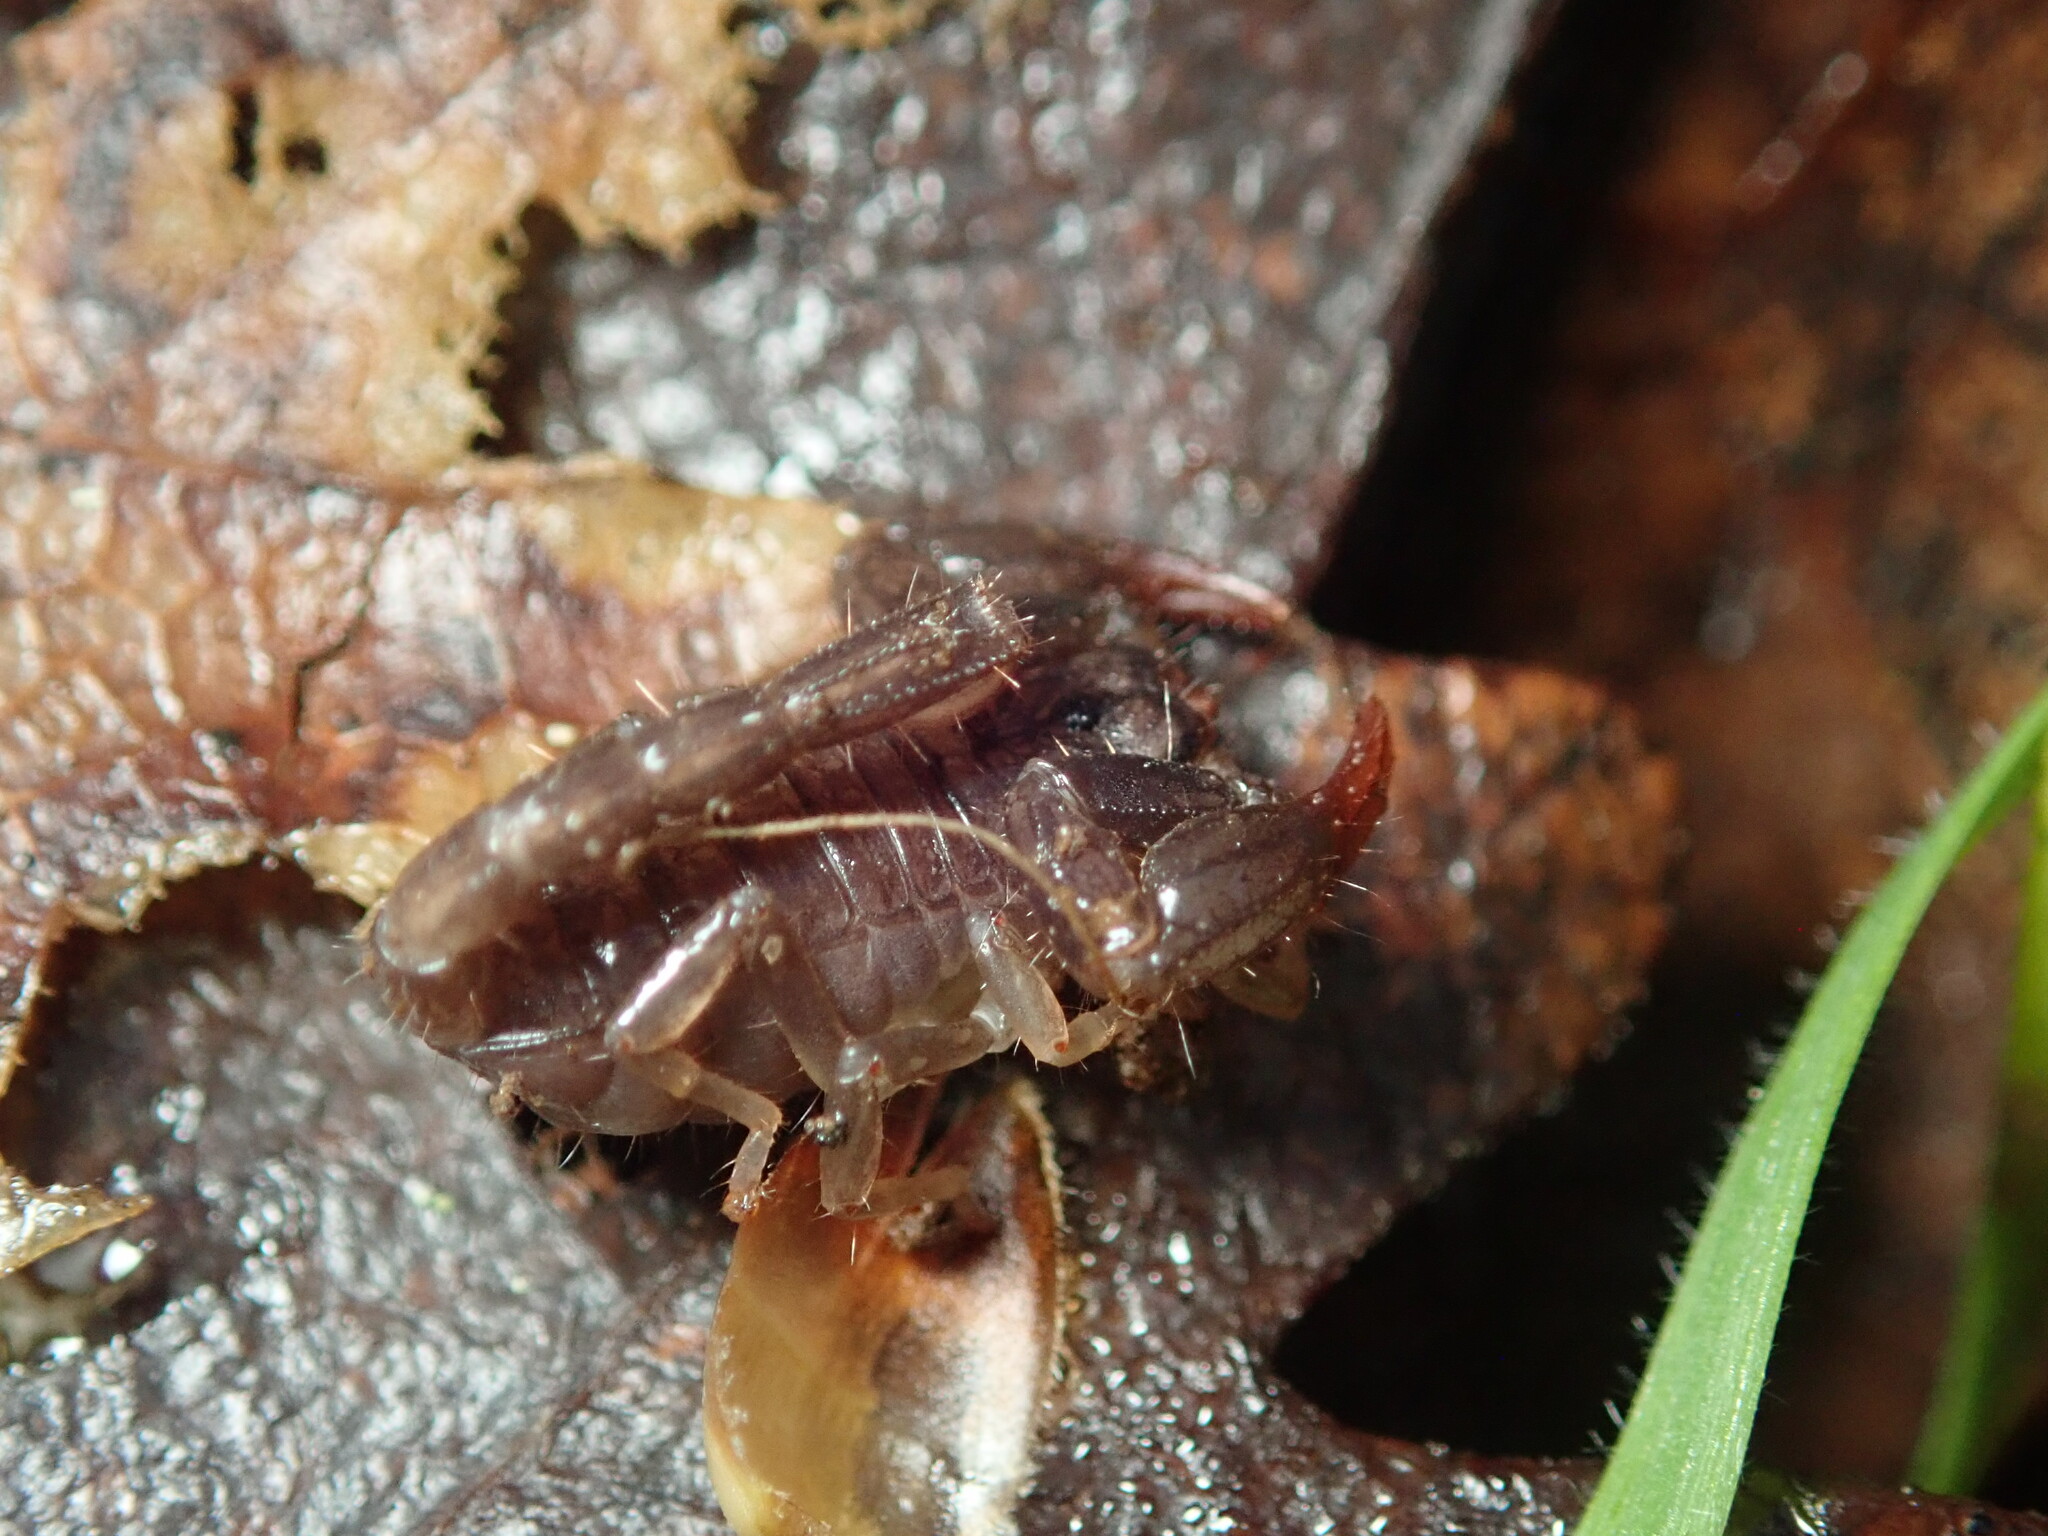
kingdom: Animalia
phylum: Arthropoda
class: Arachnida
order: Scorpiones
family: Chactidae
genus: Uroctonus
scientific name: Uroctonus mordax
